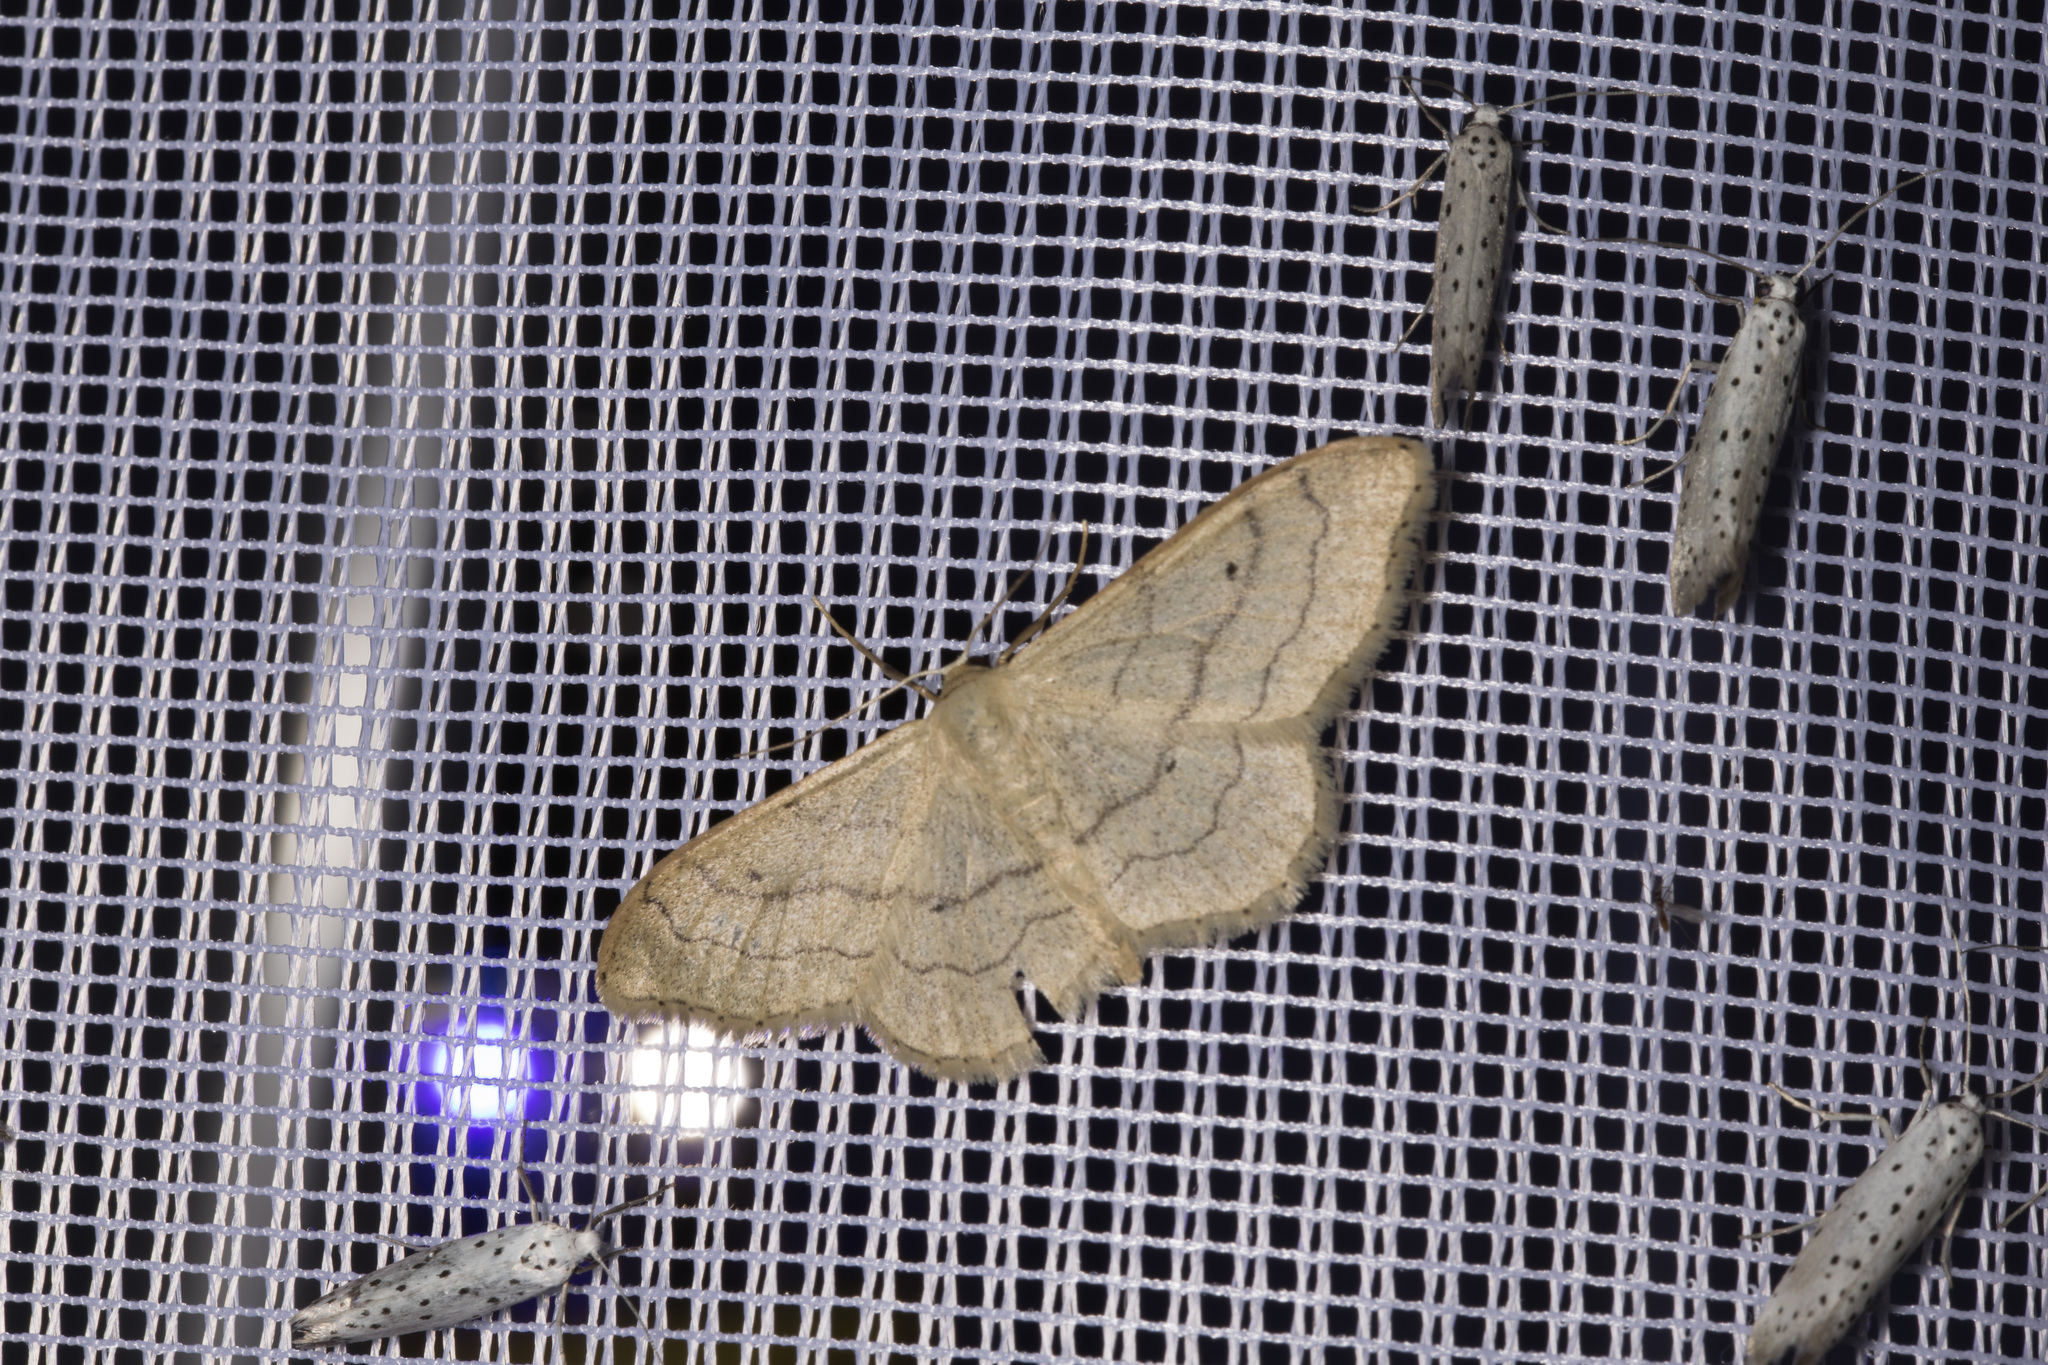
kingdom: Animalia
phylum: Arthropoda
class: Insecta
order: Lepidoptera
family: Geometridae
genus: Idaea
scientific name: Idaea aversata
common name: Riband wave
